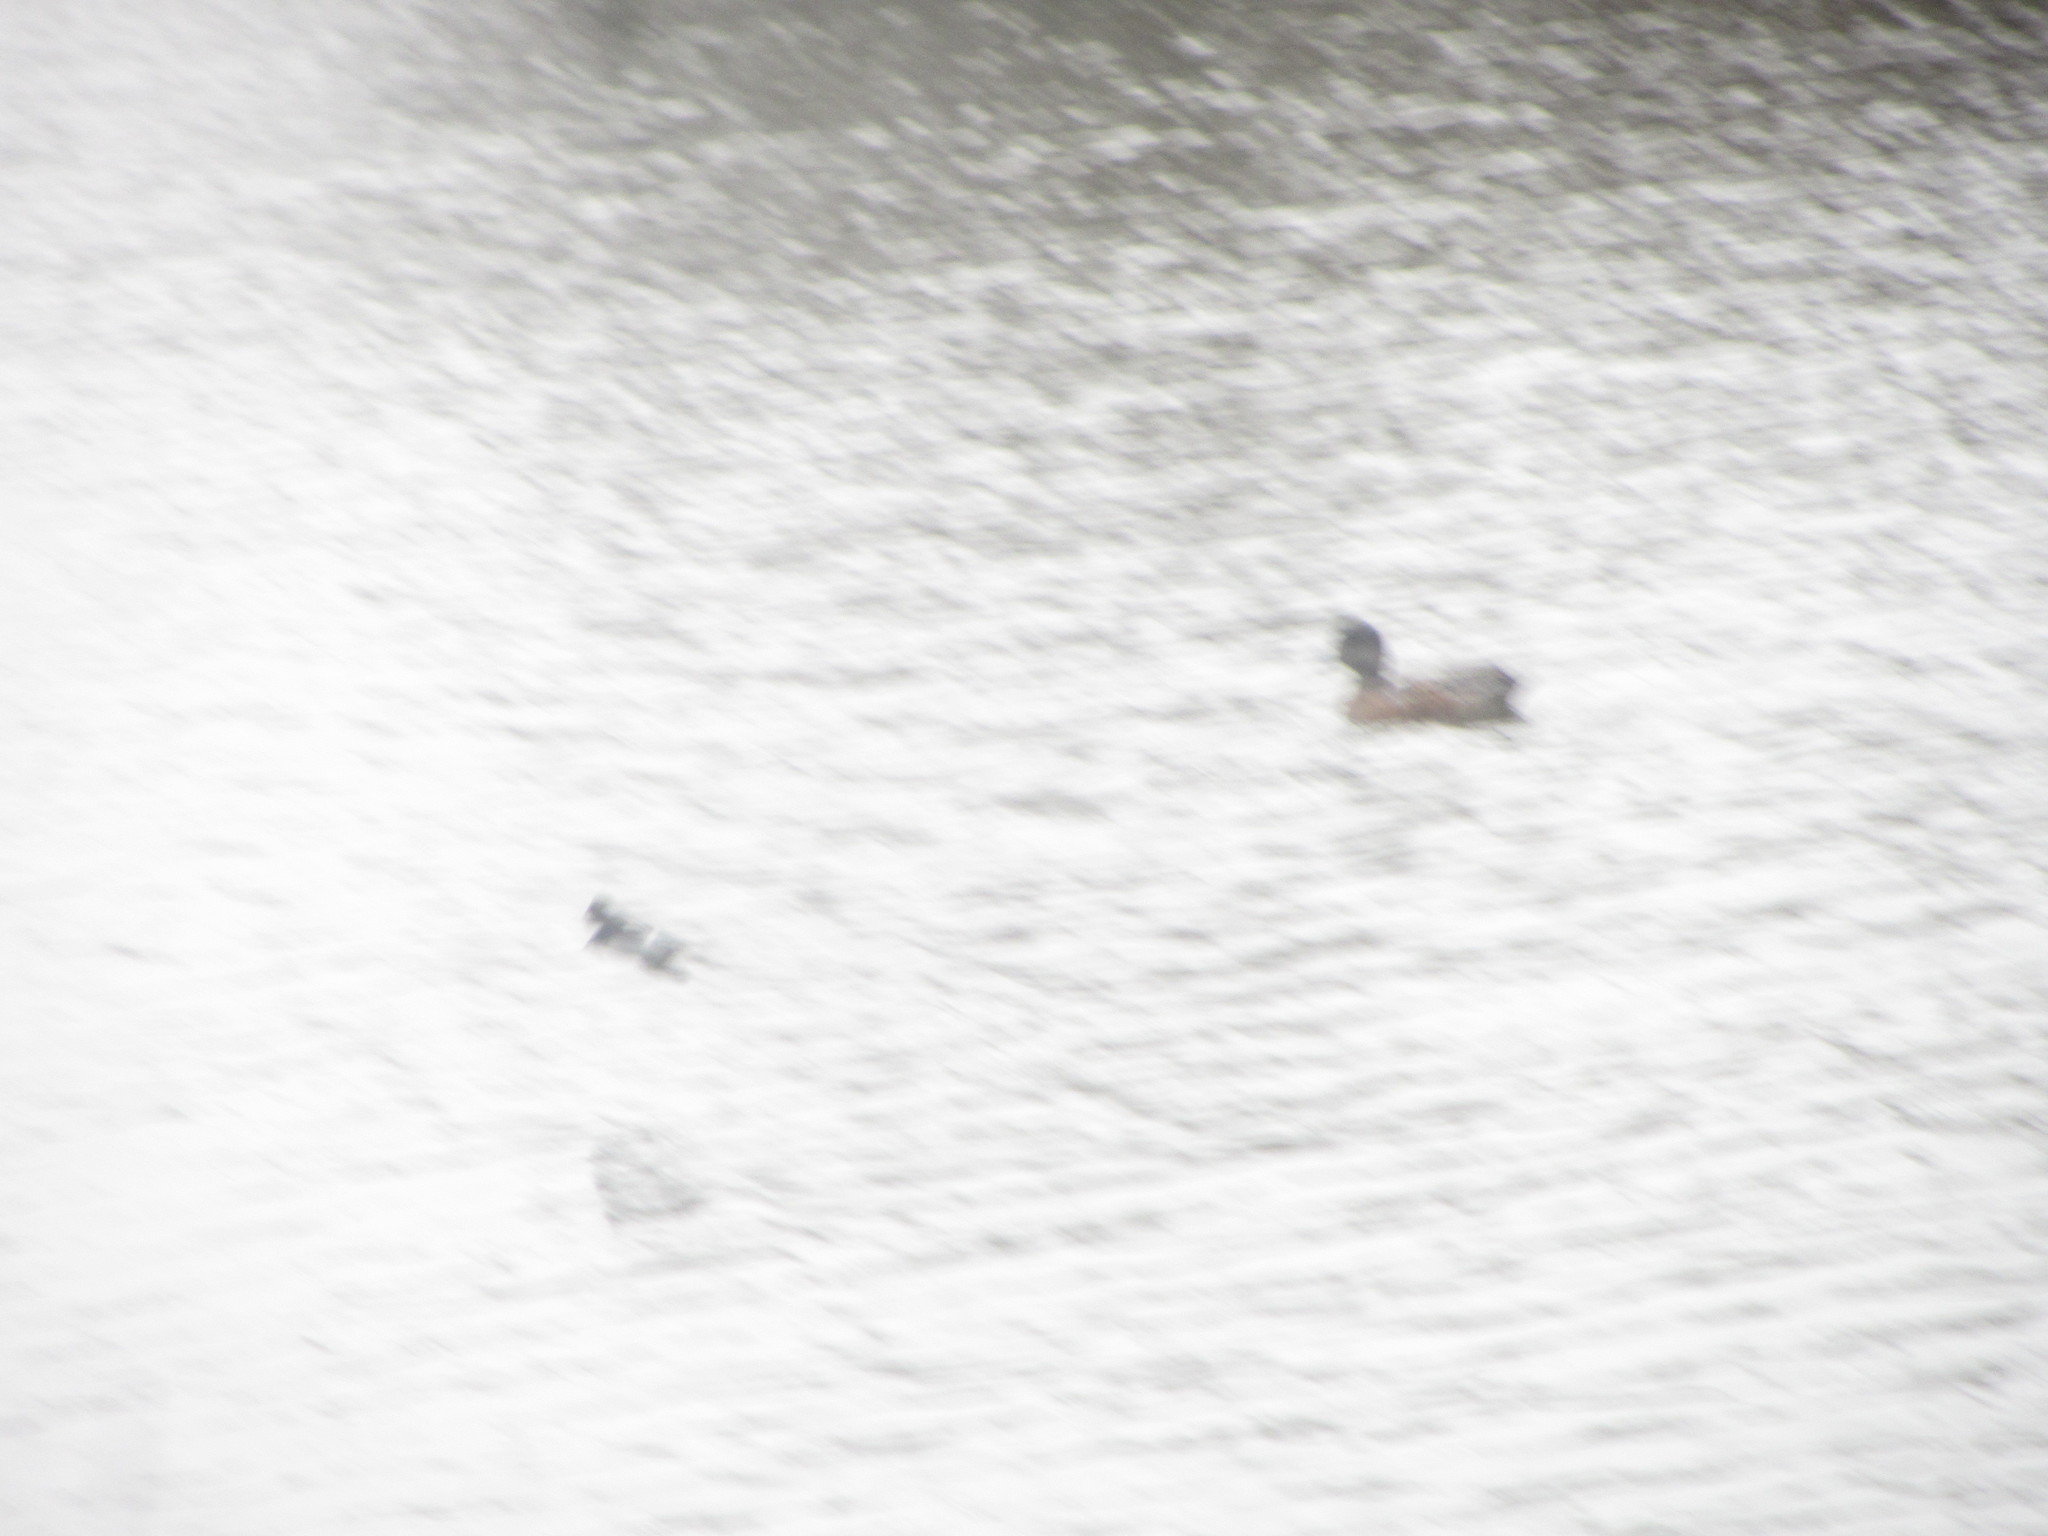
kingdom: Animalia
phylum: Chordata
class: Aves
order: Passeriformes
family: Hirundinidae
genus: Tachycineta
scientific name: Tachycineta thalassina
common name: Violet-green swallow
